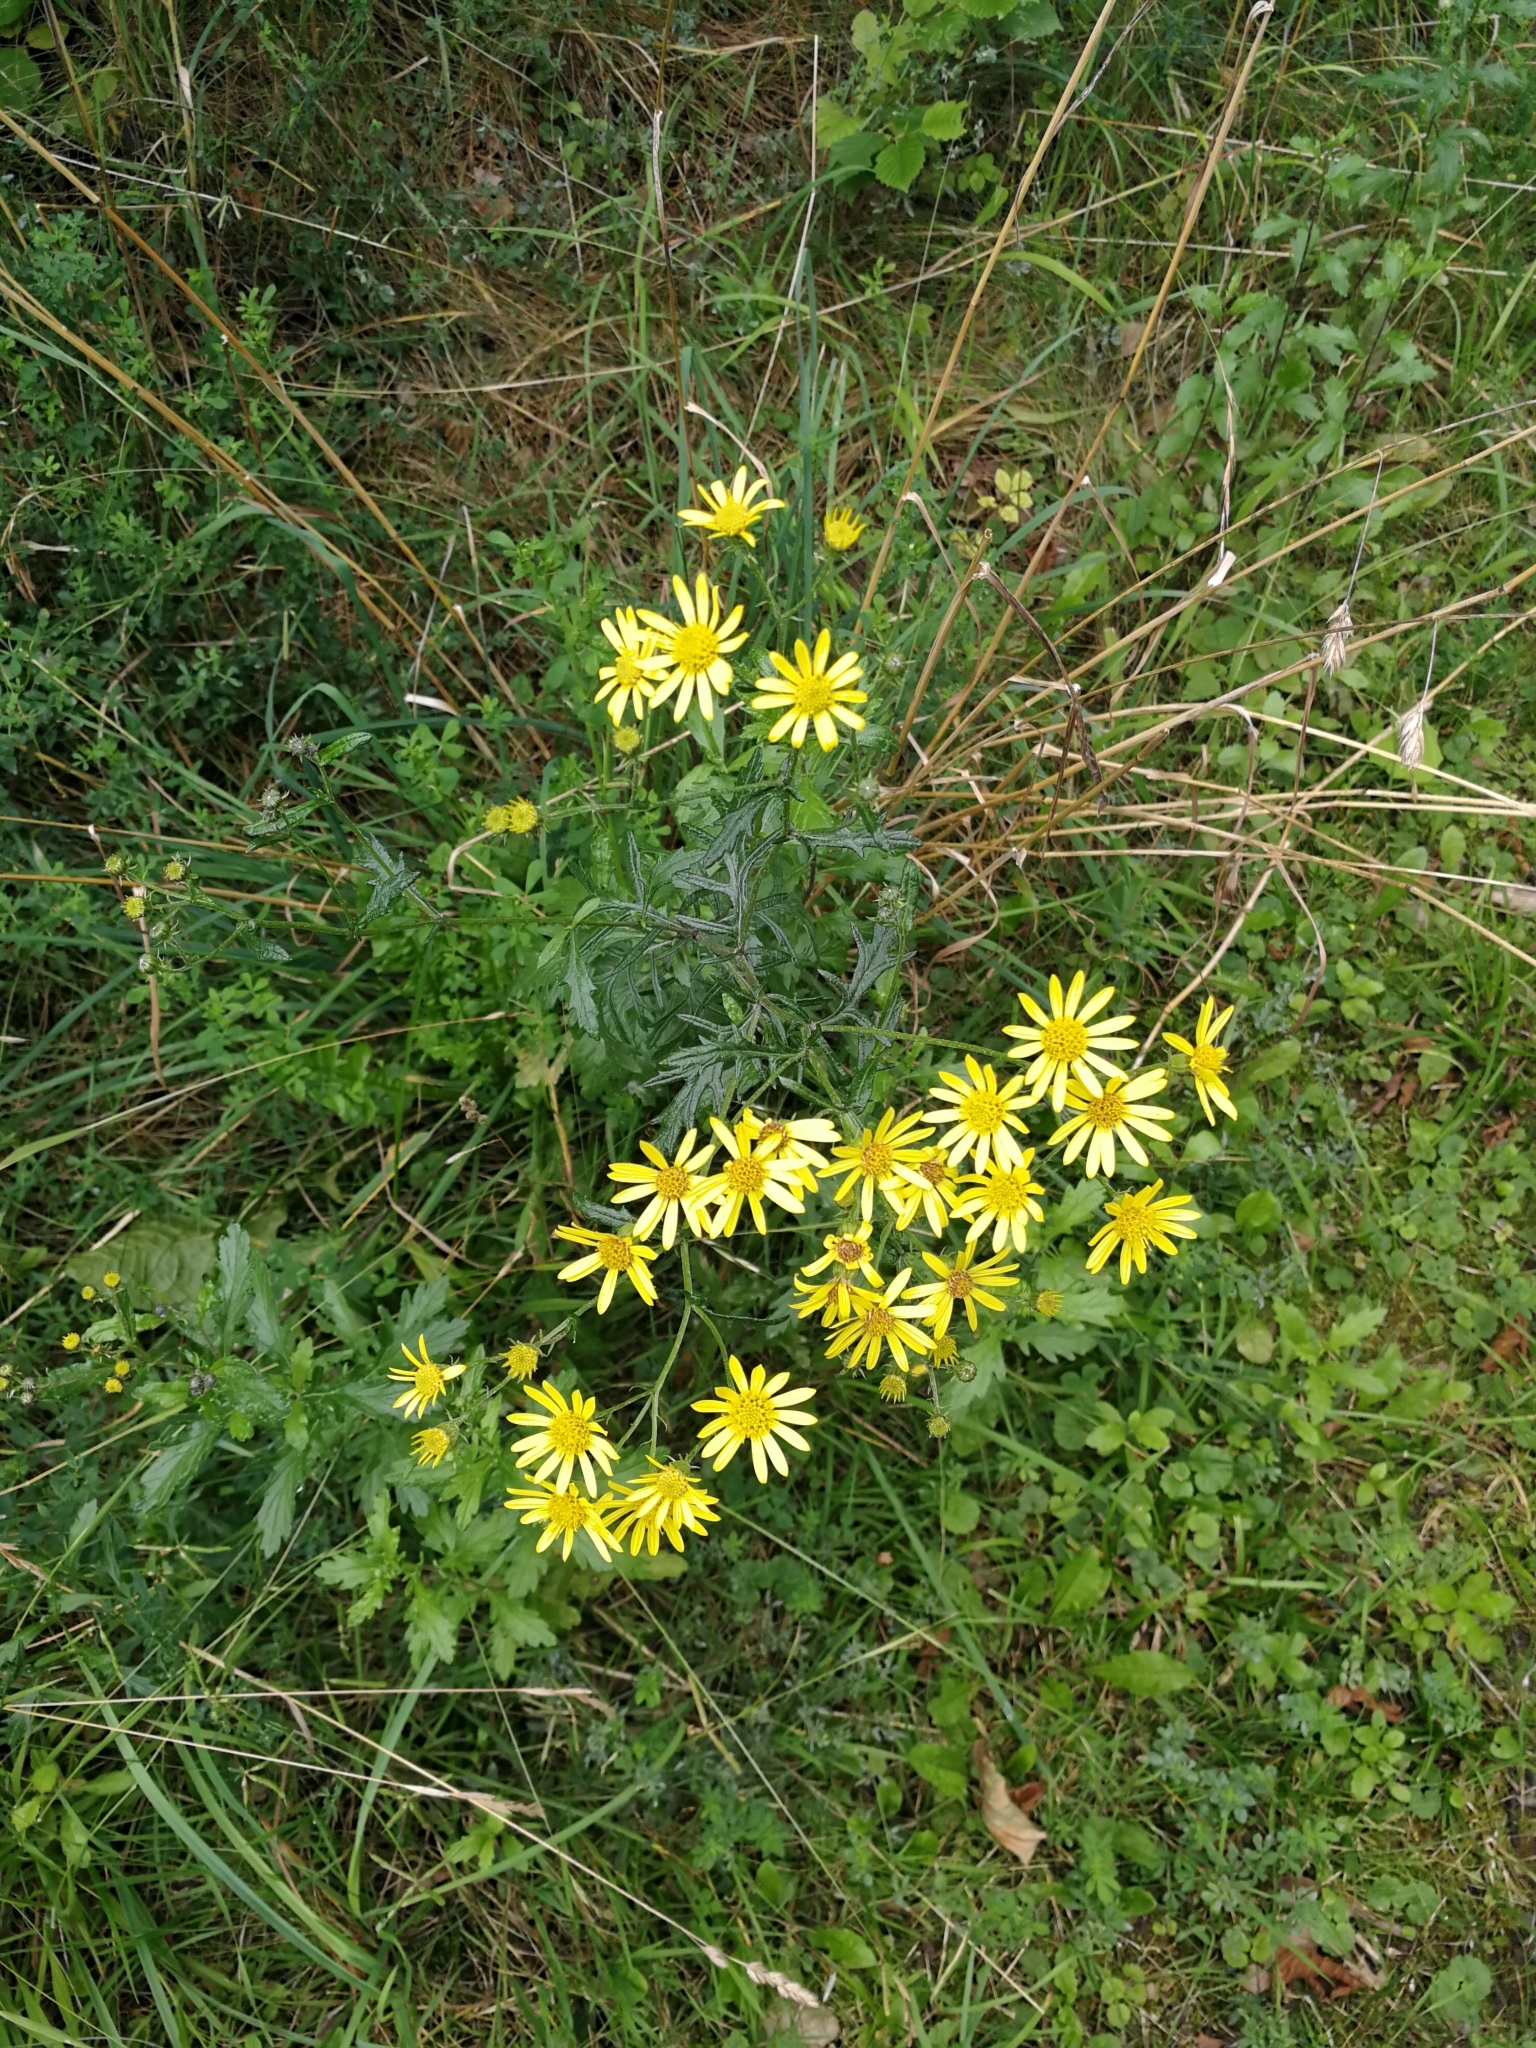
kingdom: Plantae
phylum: Tracheophyta
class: Magnoliopsida
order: Asterales
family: Asteraceae
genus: Jacobaea
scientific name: Jacobaea erucifolia
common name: Hoary ragwort
